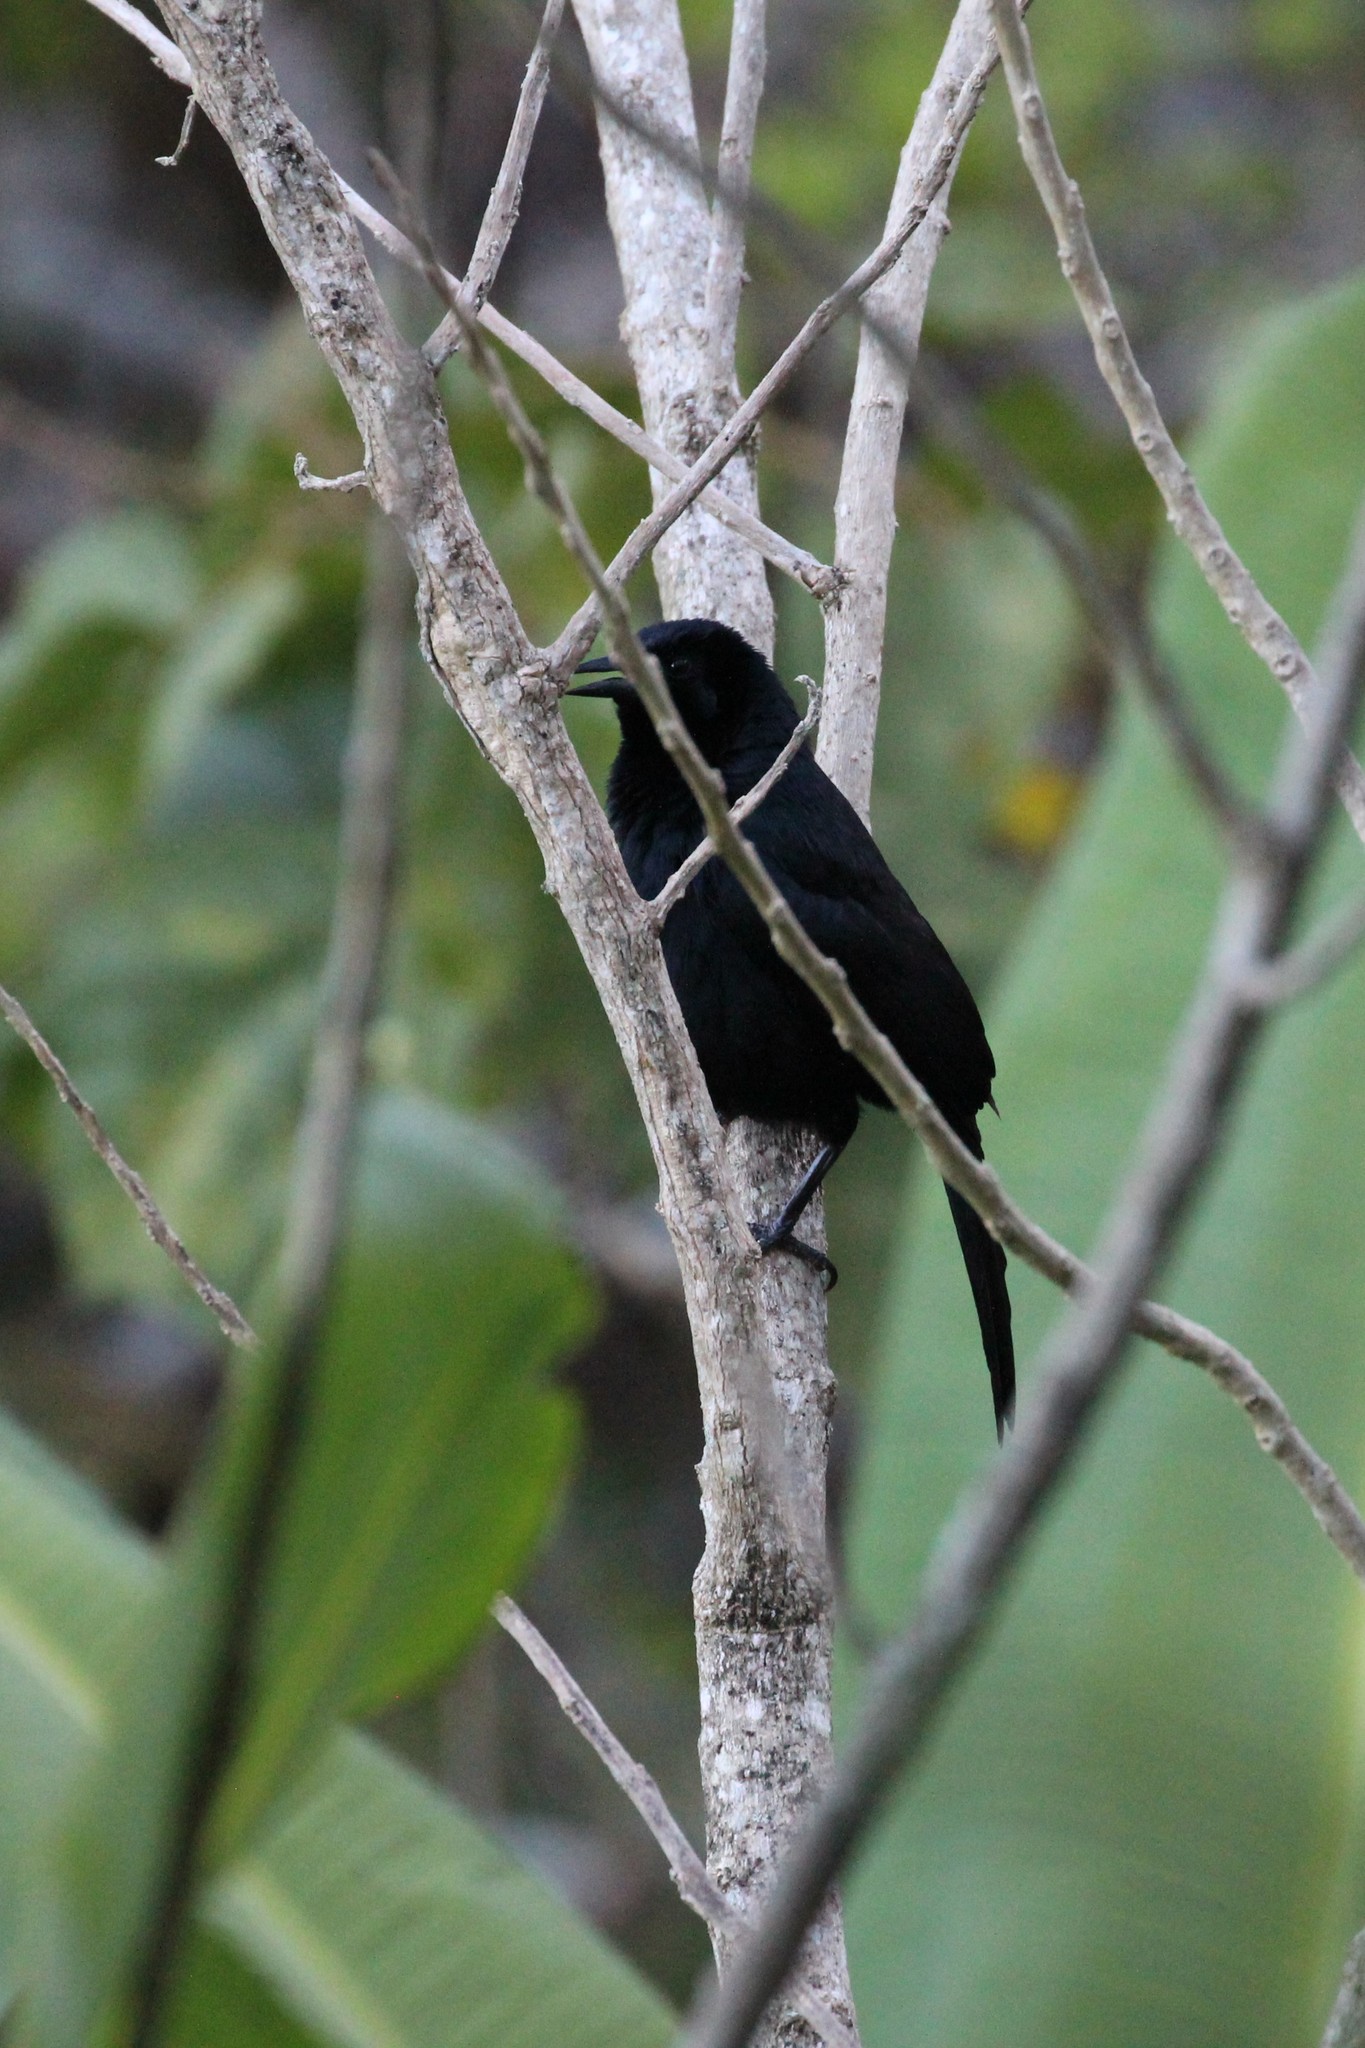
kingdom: Animalia
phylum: Chordata
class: Aves
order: Passeriformes
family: Icteridae
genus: Dives
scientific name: Dives dives
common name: Melodious blackbird
